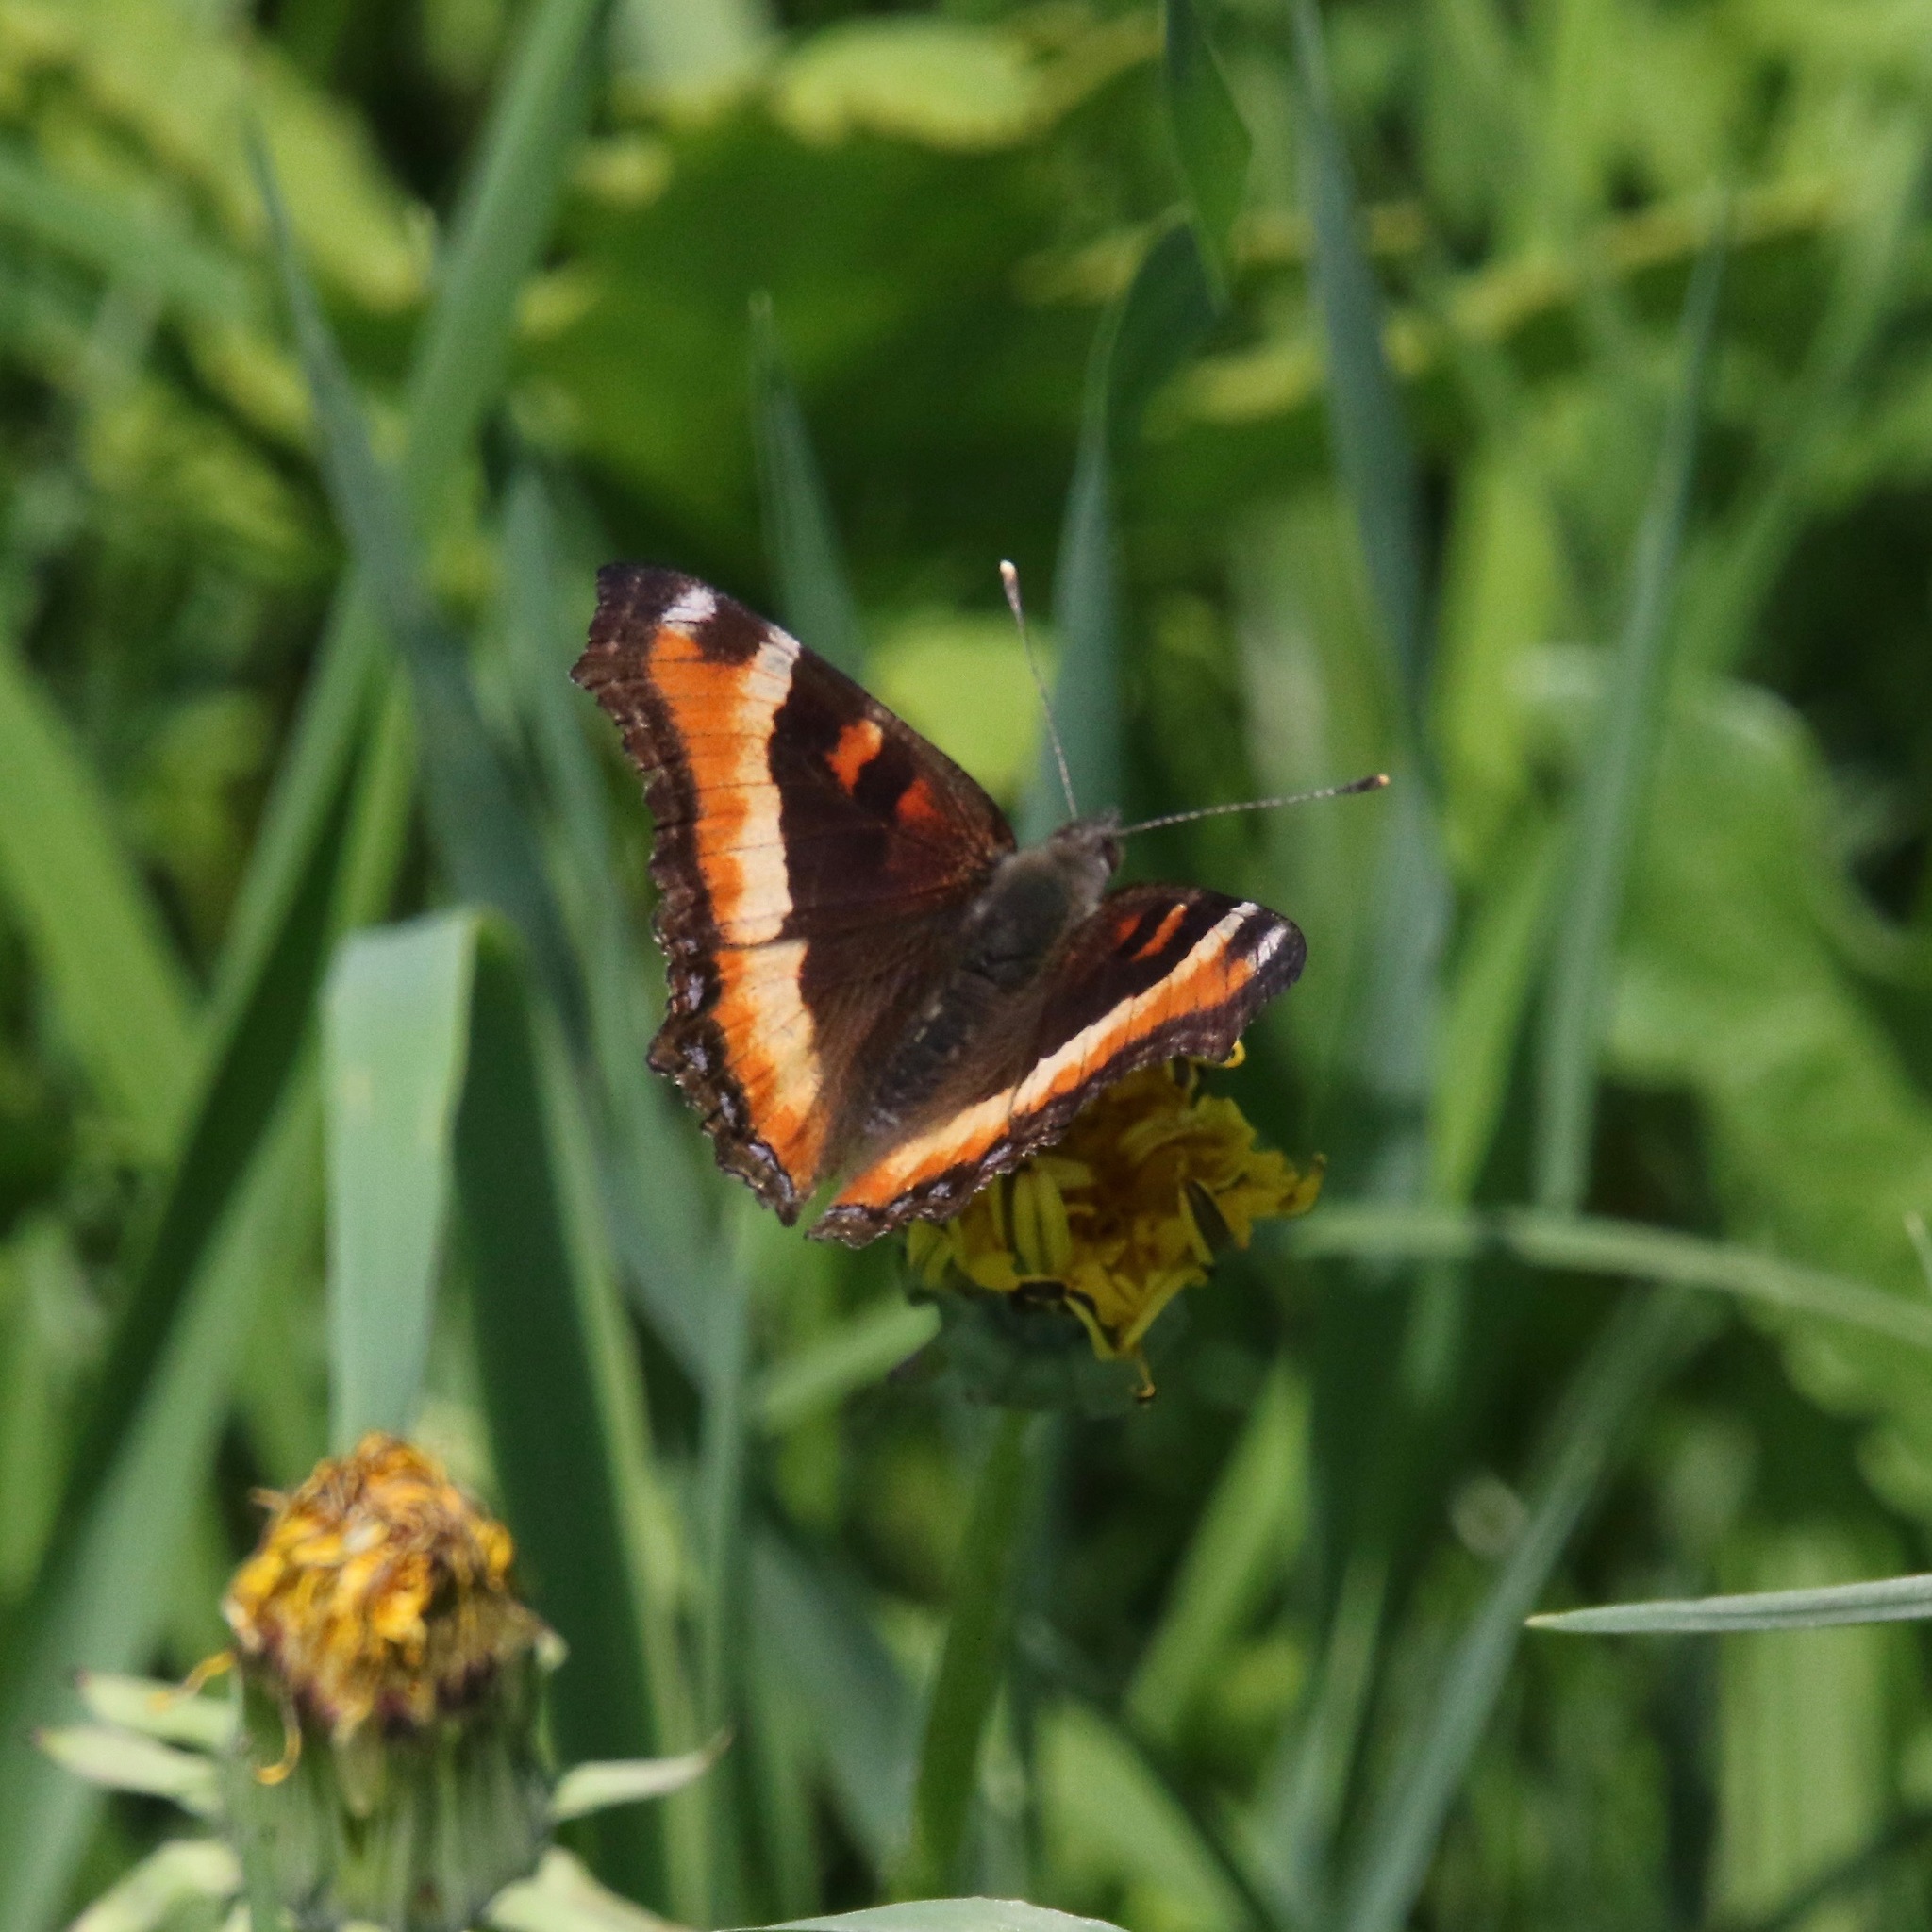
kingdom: Animalia
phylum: Arthropoda
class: Insecta
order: Lepidoptera
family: Nymphalidae
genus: Aglais
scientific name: Aglais milberti
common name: Milbert's tortoiseshell
